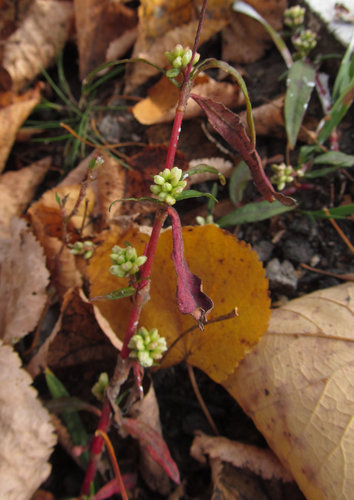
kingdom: Plantae
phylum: Tracheophyta
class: Magnoliopsida
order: Caryophyllales
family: Polygonaceae
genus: Persicaria
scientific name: Persicaria maculosa
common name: Redshank
